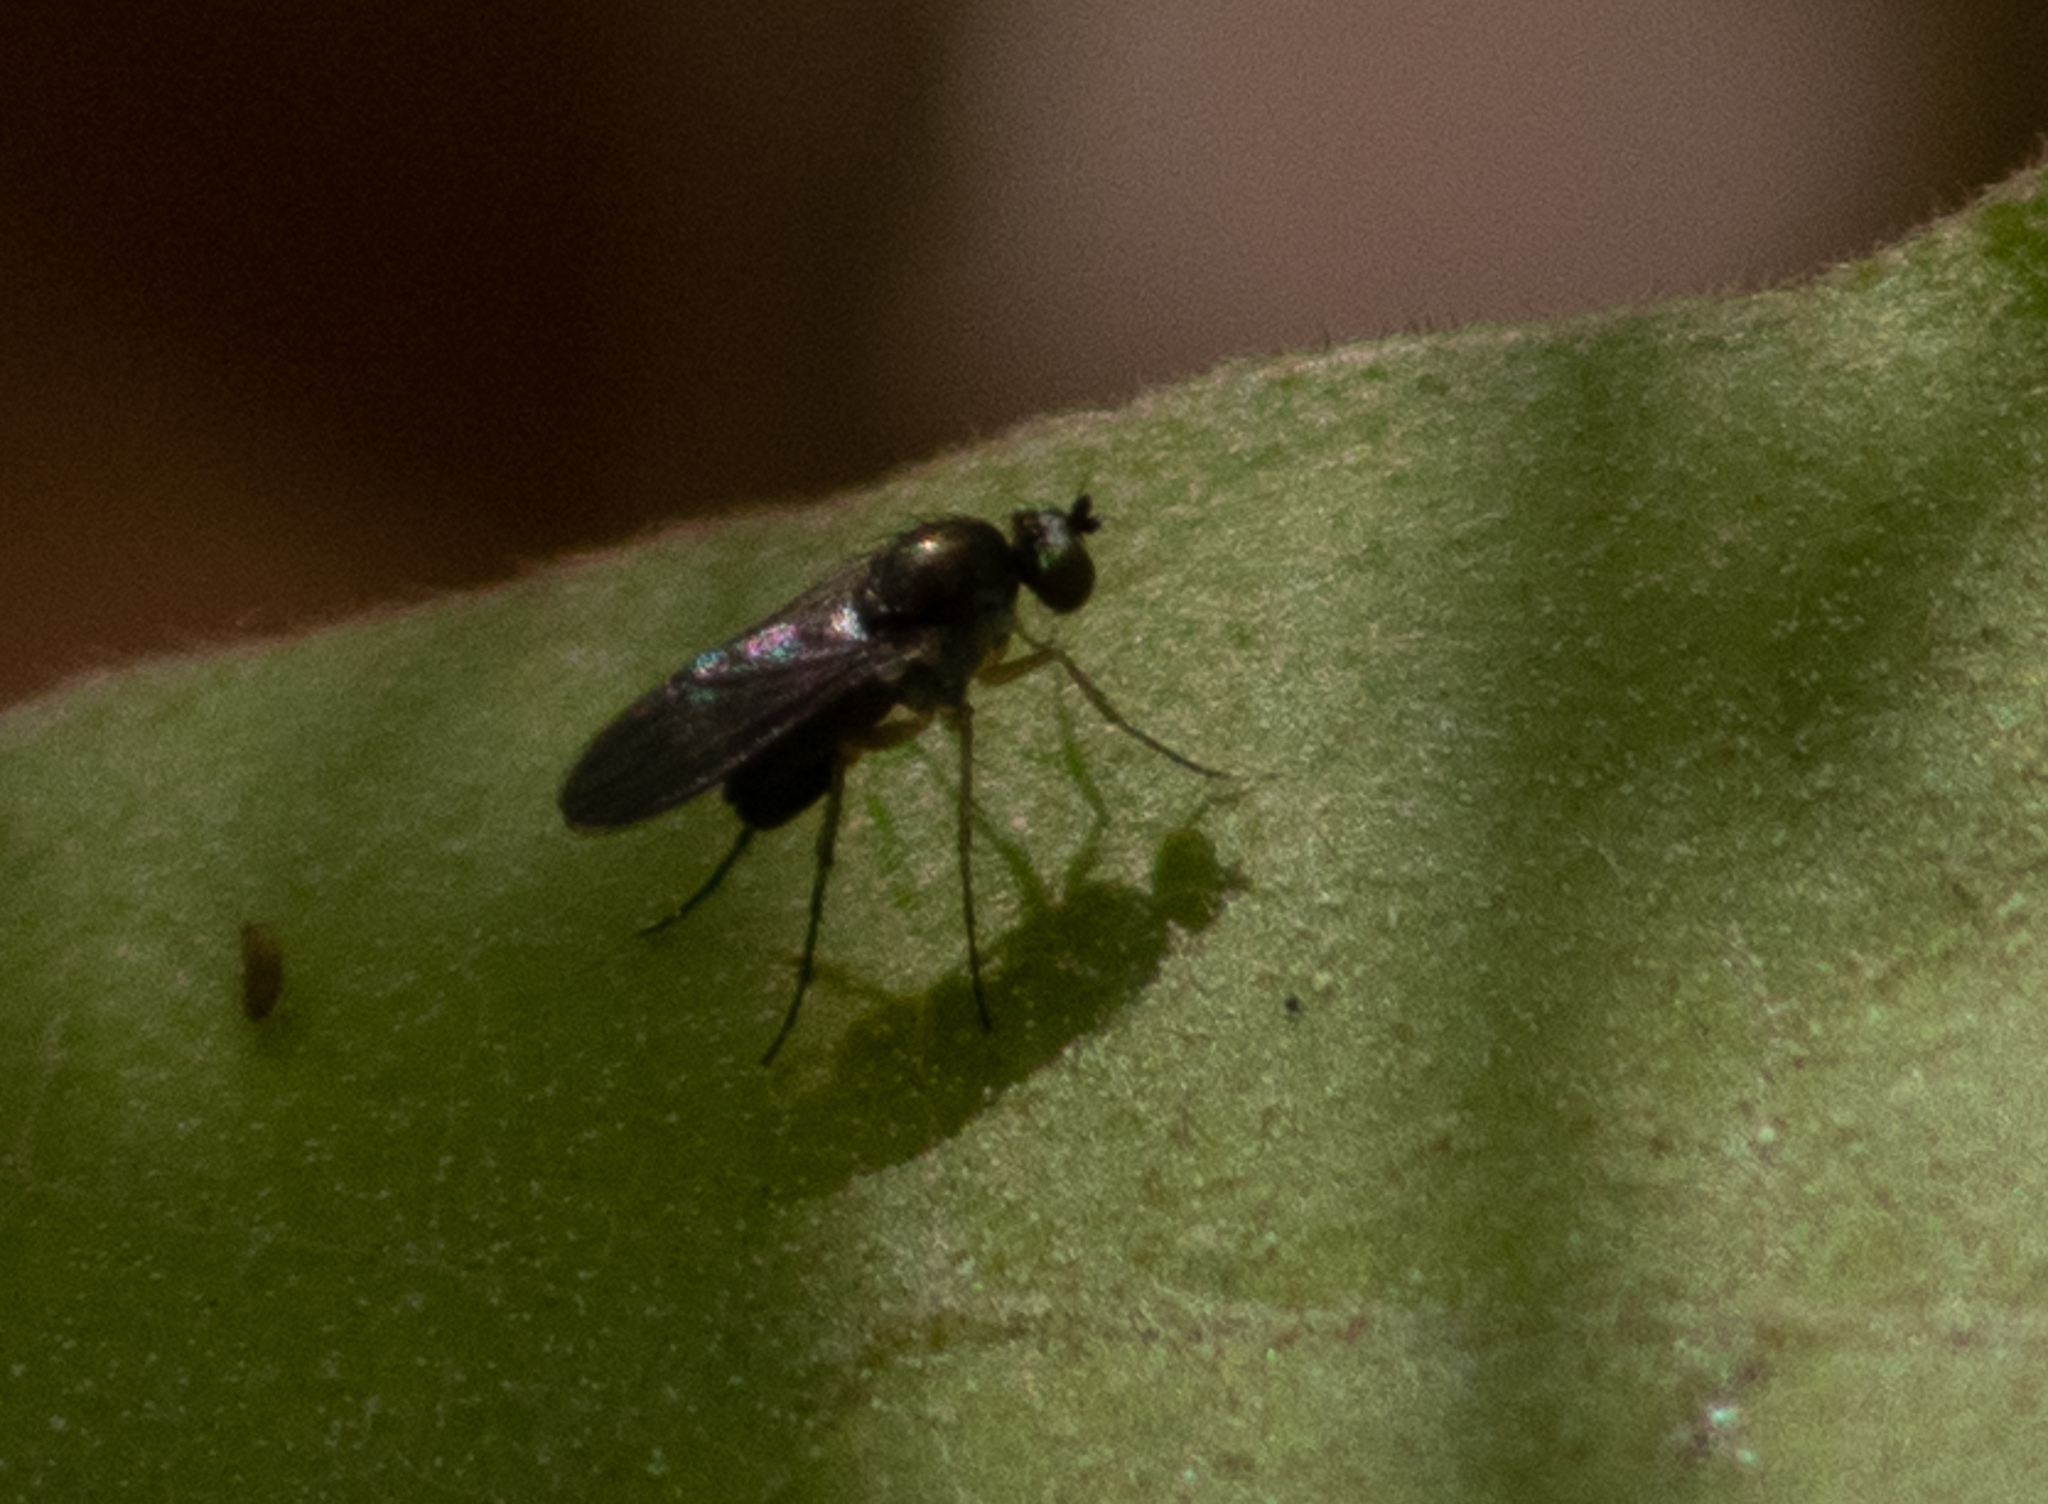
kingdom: Animalia
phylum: Arthropoda
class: Insecta
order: Diptera
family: Dolichopodidae
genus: Gymnopternus
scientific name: Gymnopternus
